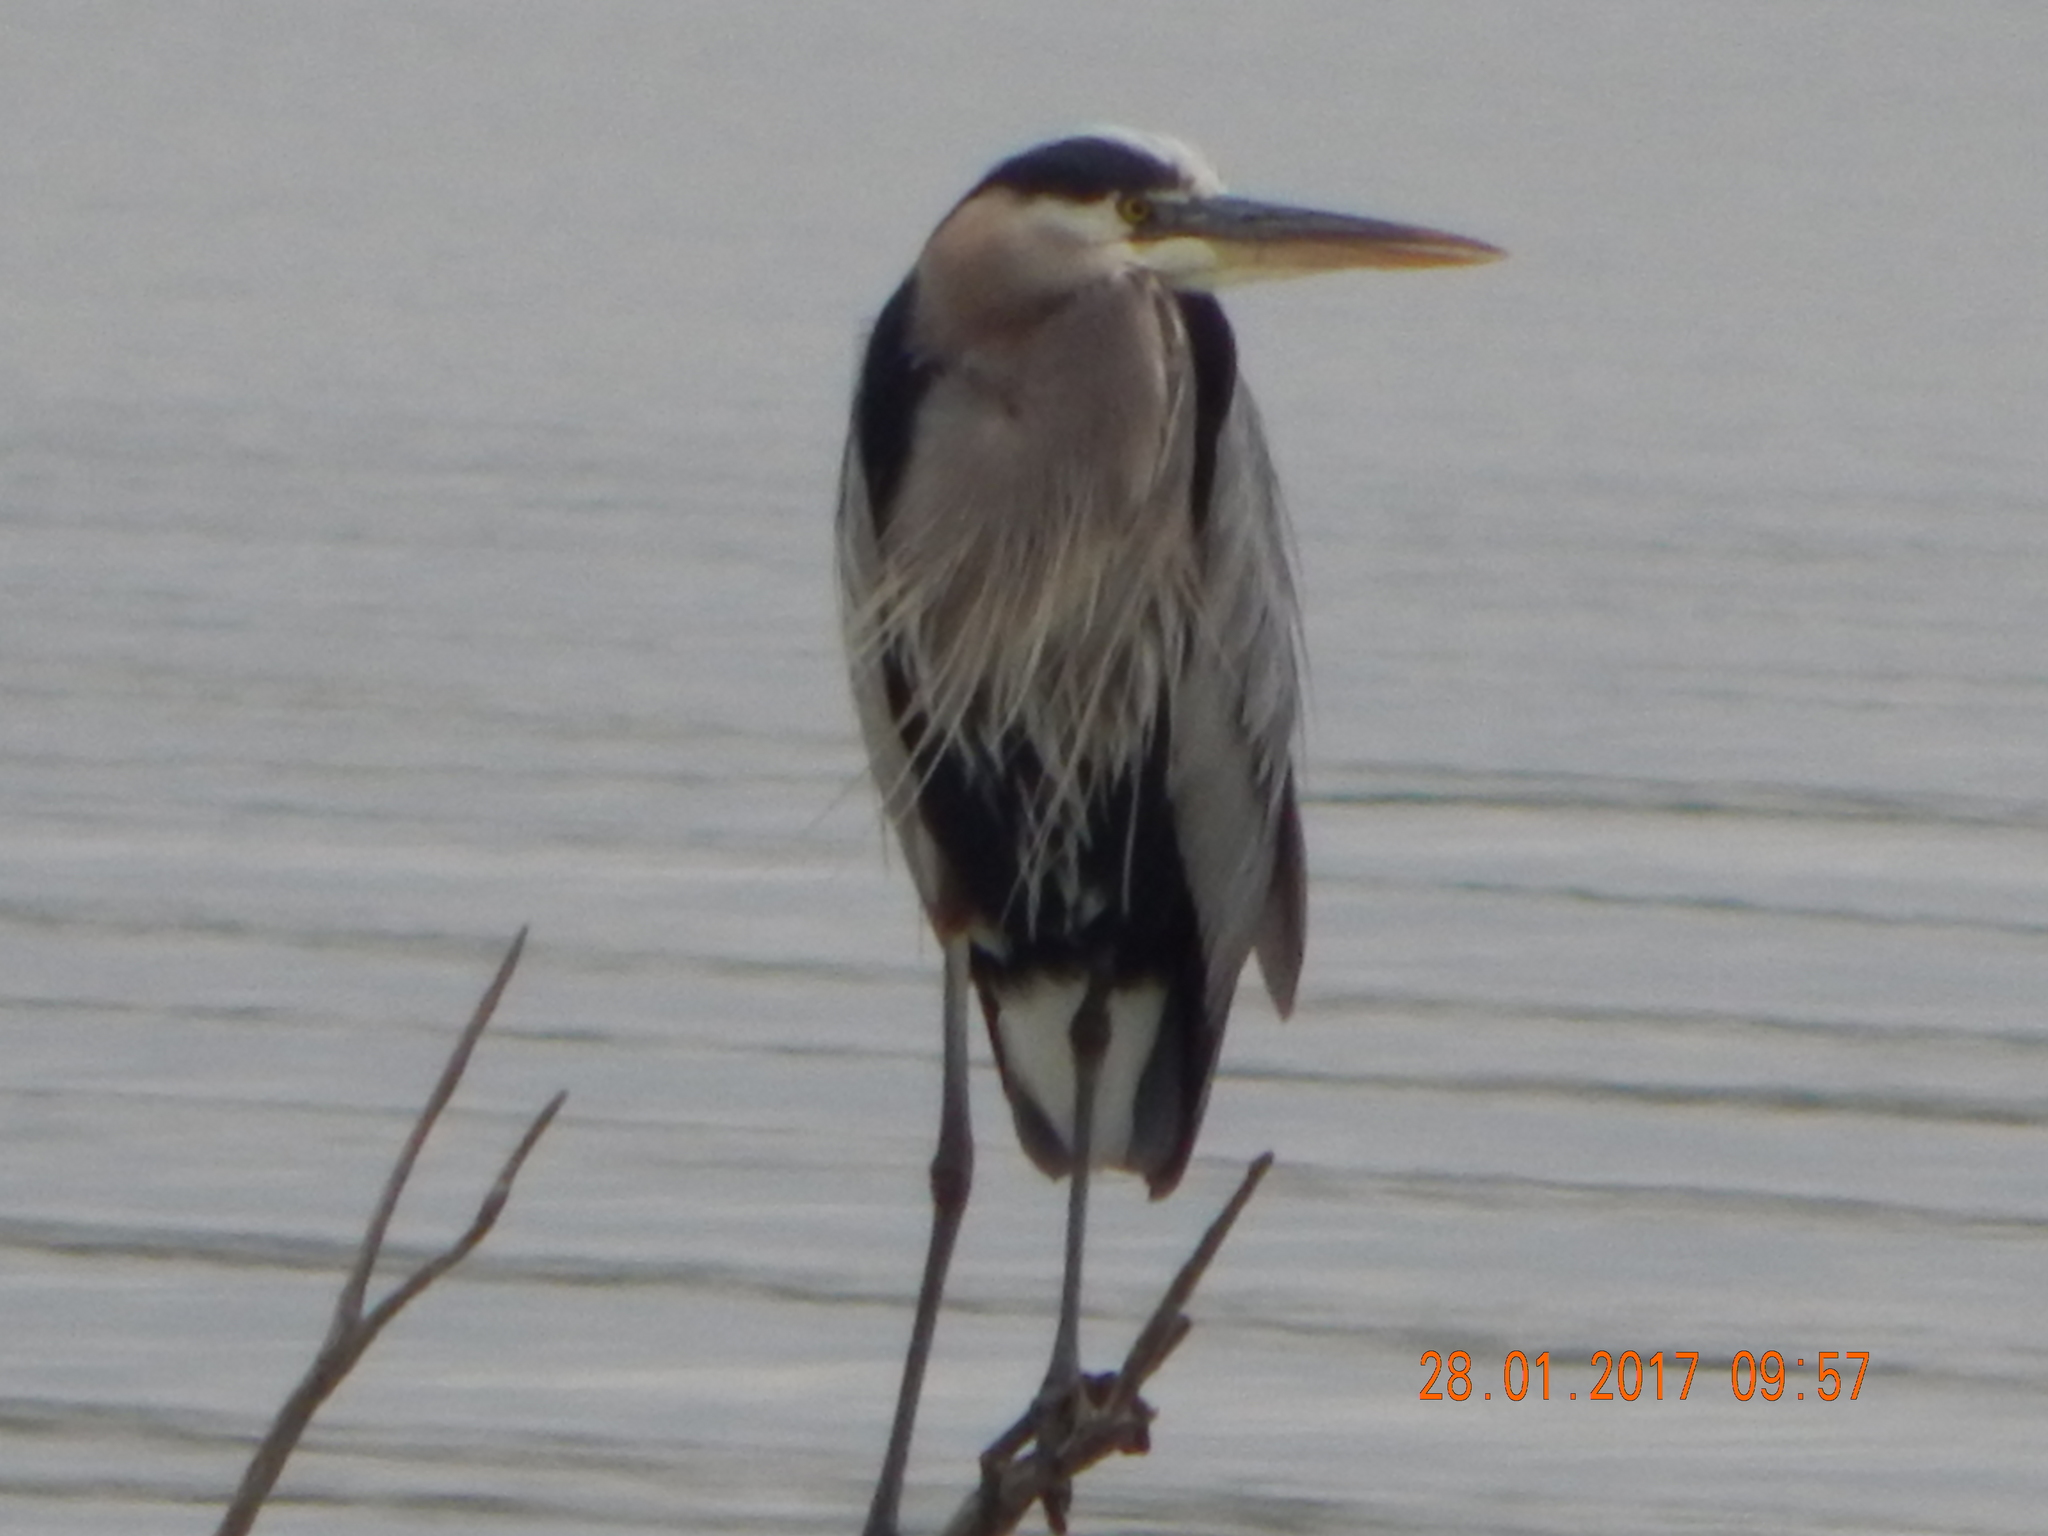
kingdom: Animalia
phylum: Chordata
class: Aves
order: Pelecaniformes
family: Ardeidae
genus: Ardea
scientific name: Ardea herodias
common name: Great blue heron
